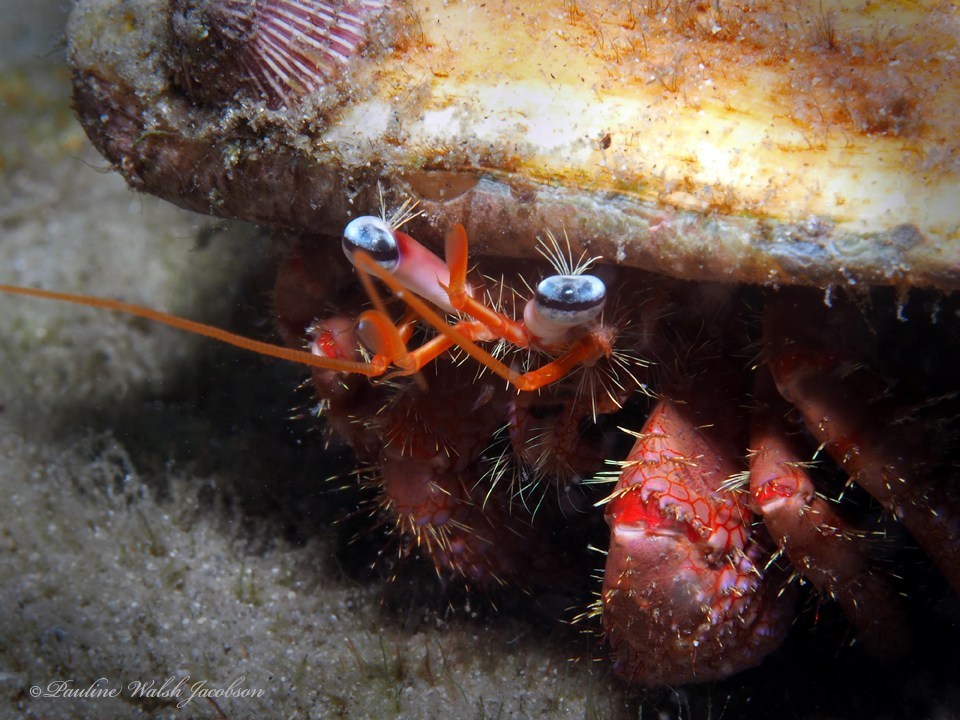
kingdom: Animalia
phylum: Arthropoda
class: Malacostraca
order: Decapoda
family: Diogenidae
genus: Dardanus
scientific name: Dardanus fucosus
